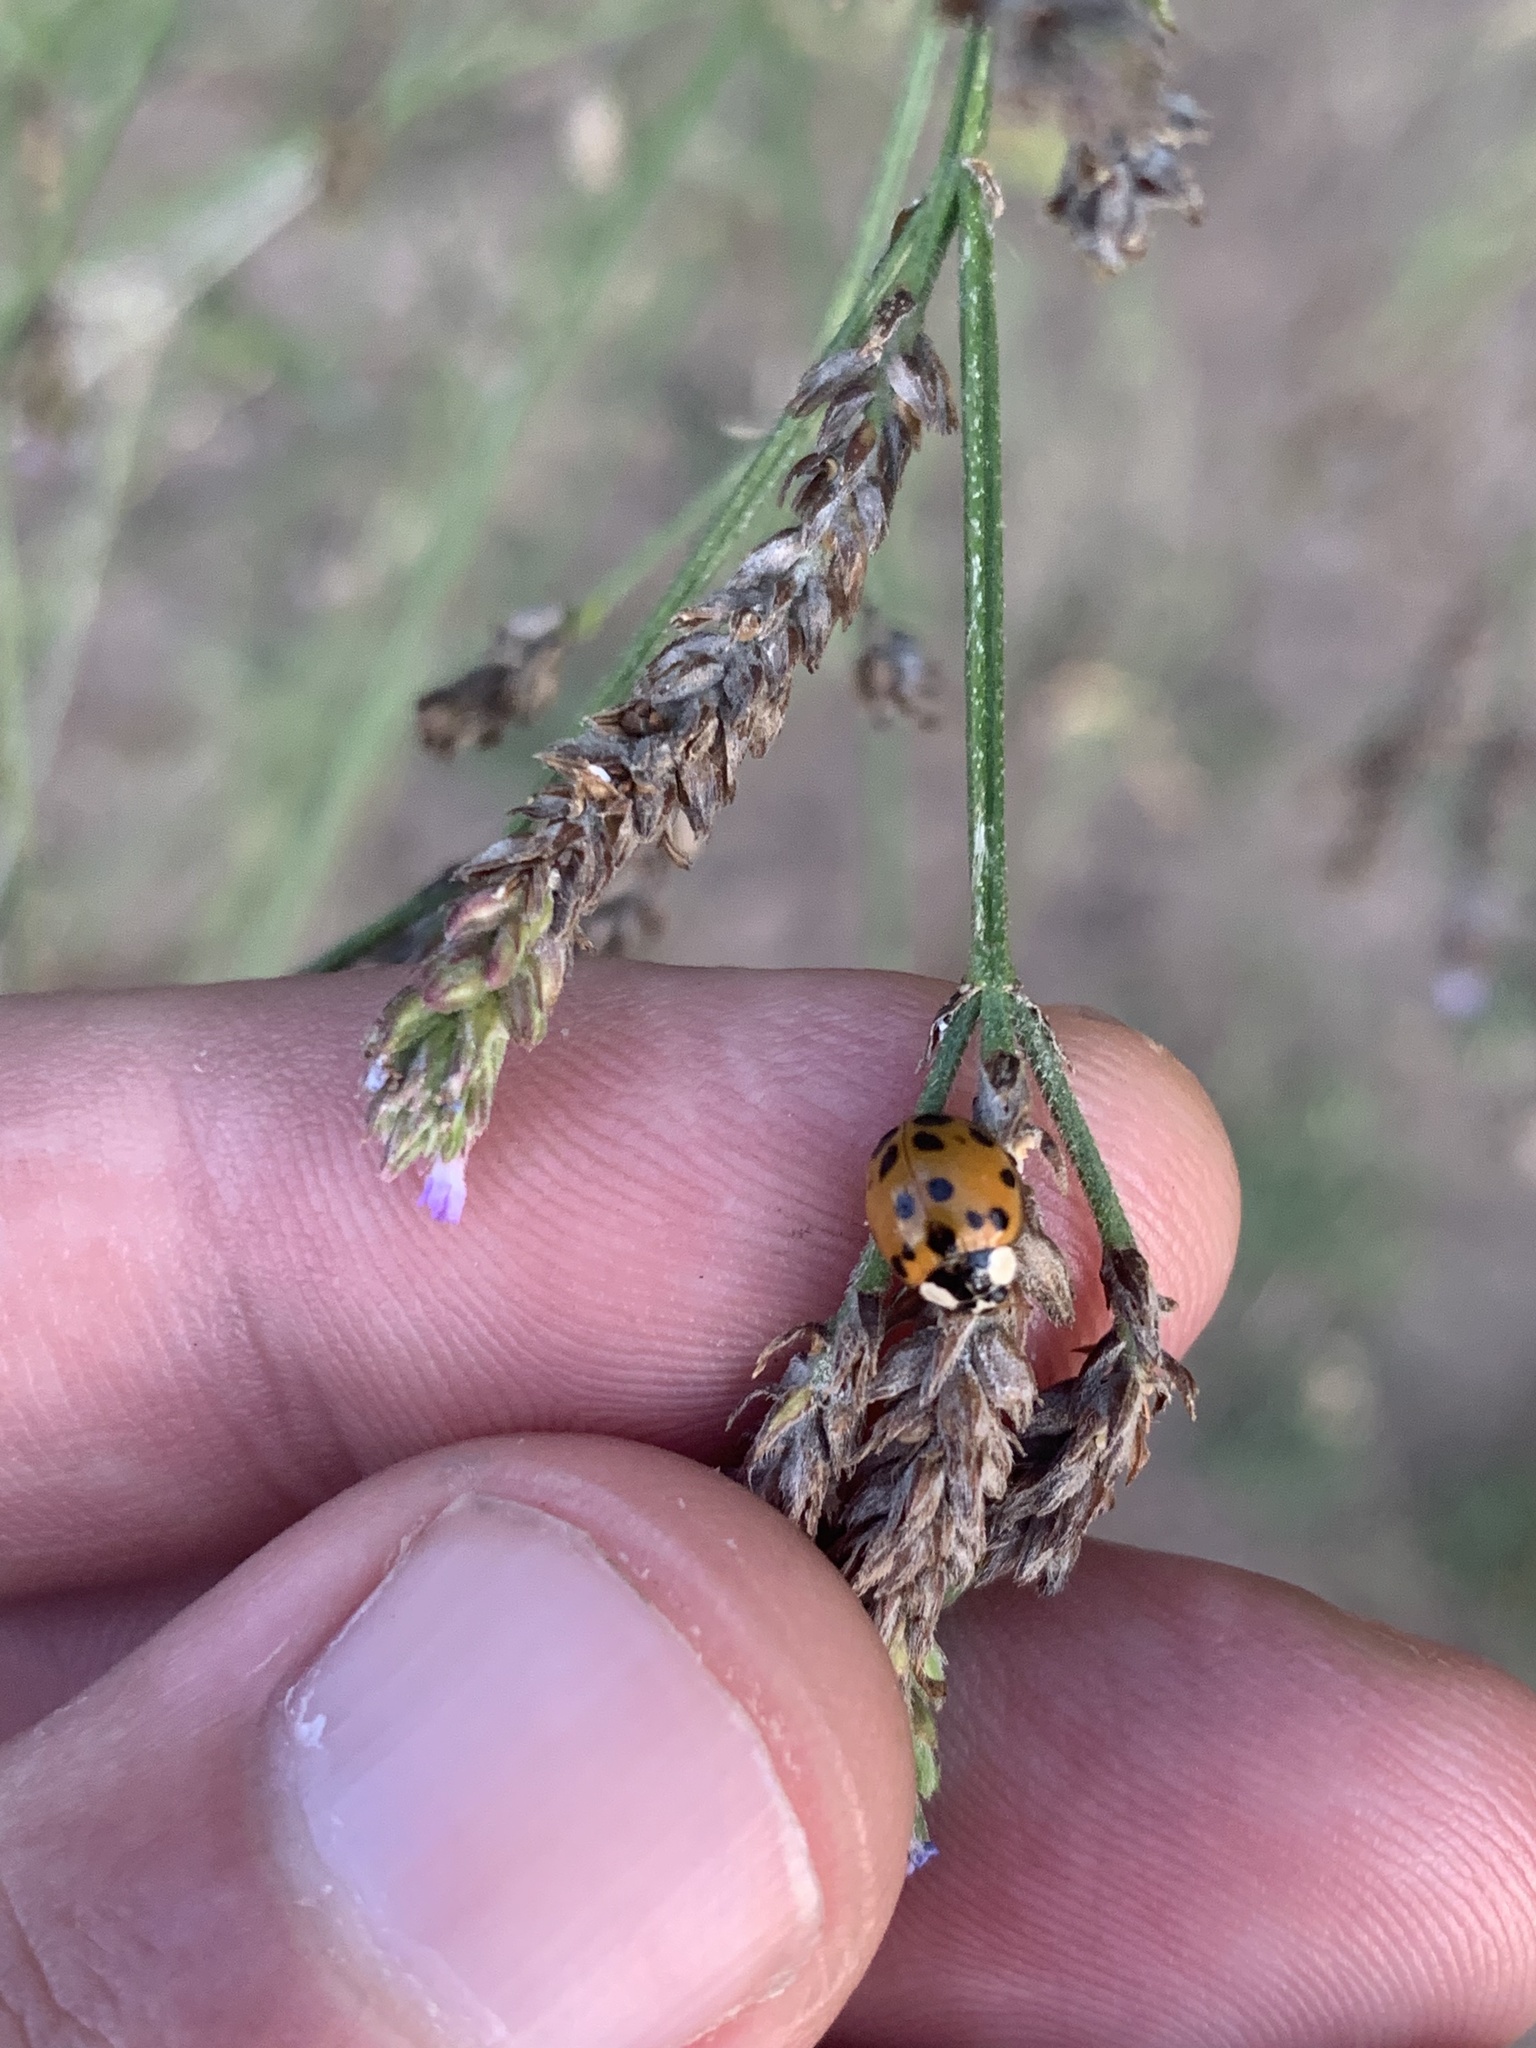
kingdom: Animalia
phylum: Arthropoda
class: Insecta
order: Coleoptera
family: Coccinellidae
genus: Harmonia
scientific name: Harmonia axyridis
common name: Harlequin ladybird
